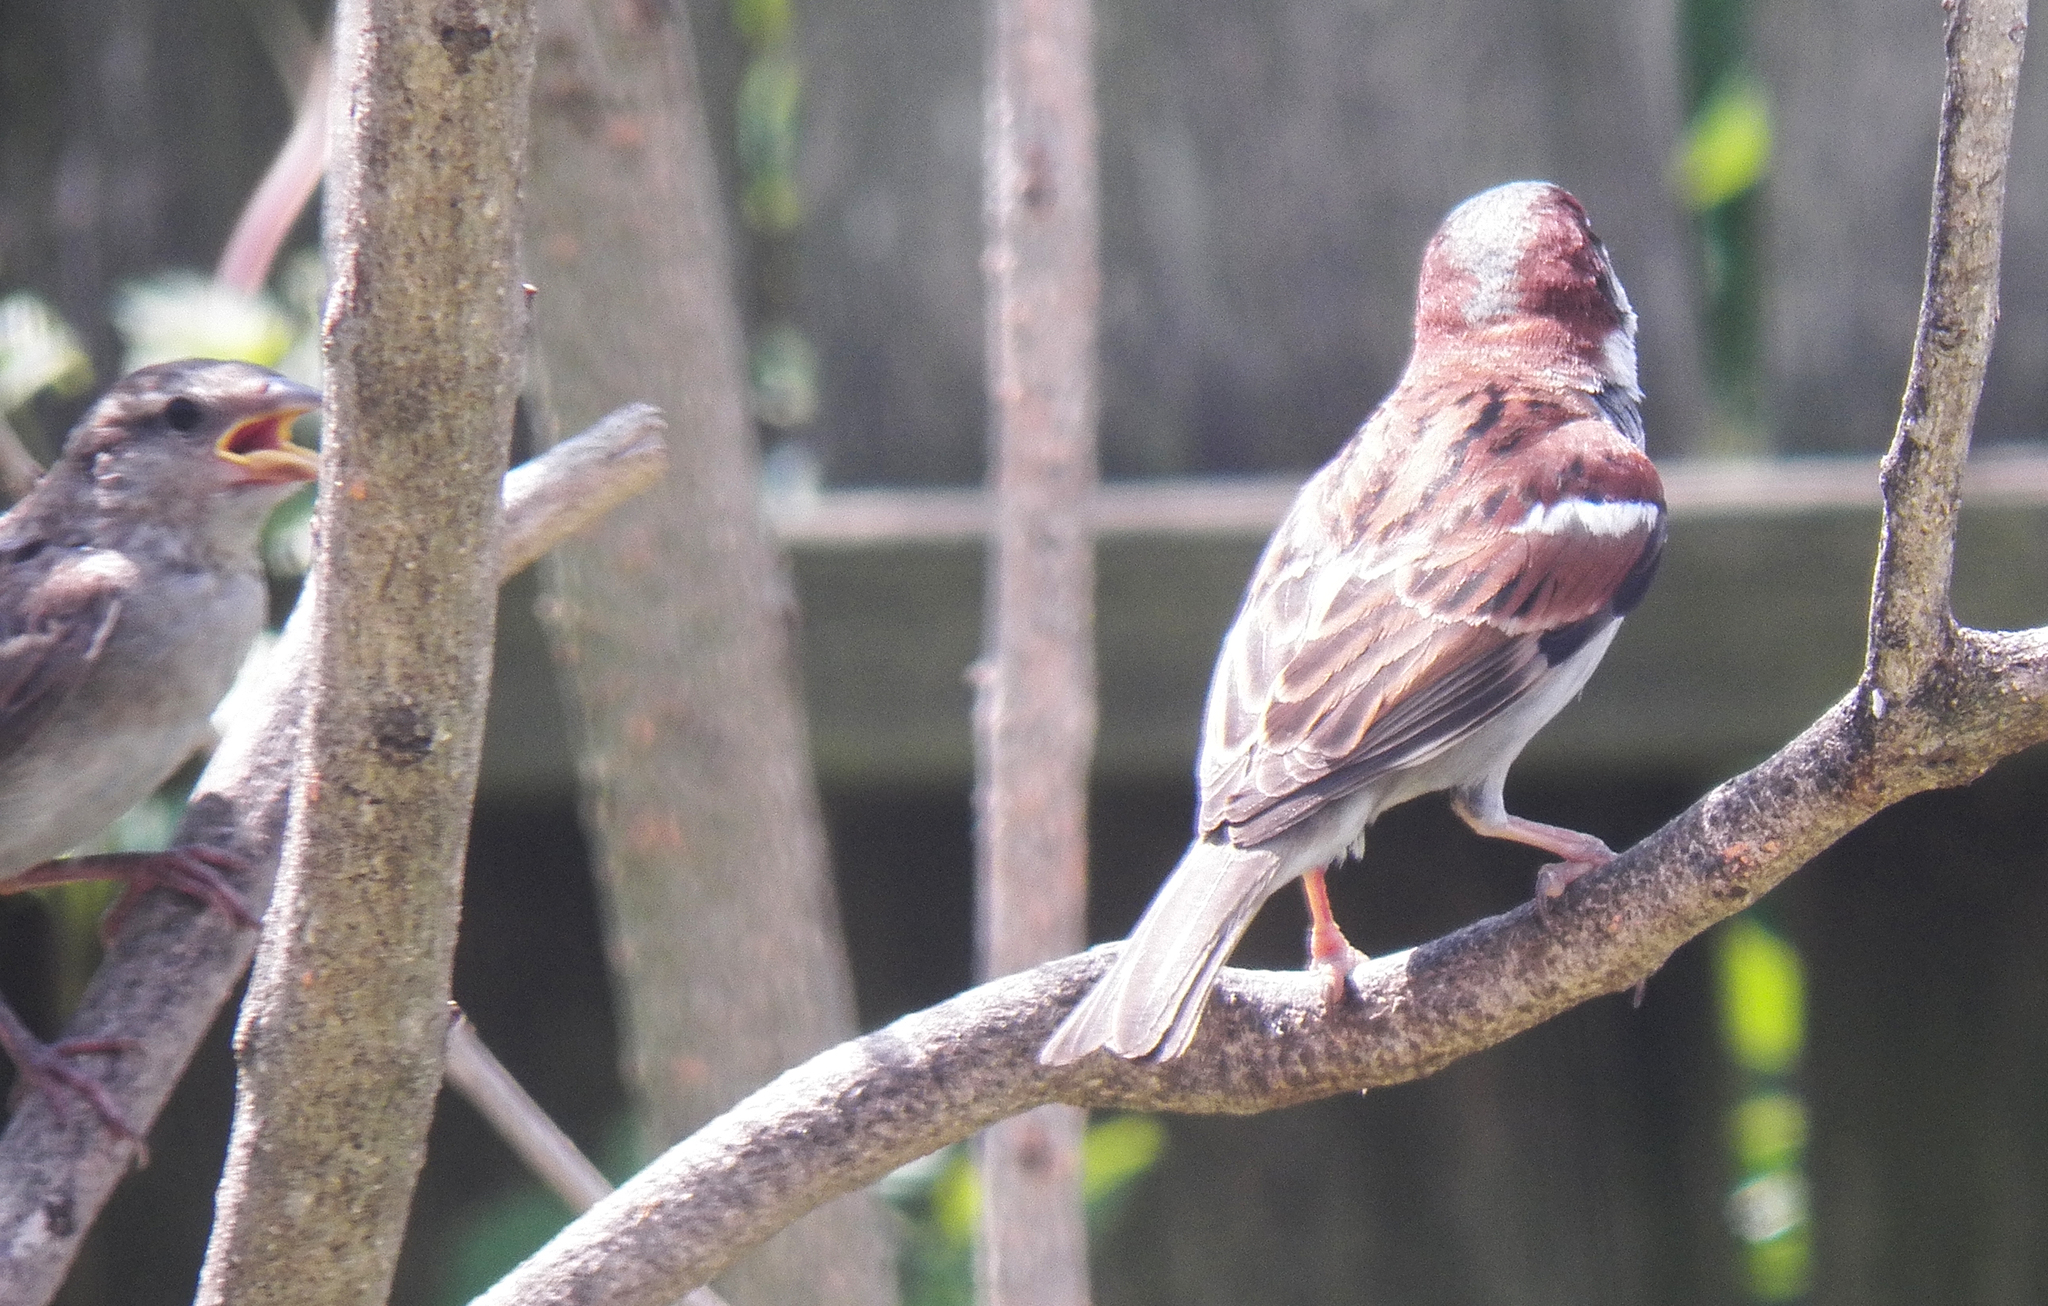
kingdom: Animalia
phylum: Chordata
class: Aves
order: Passeriformes
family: Passeridae
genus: Passer
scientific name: Passer domesticus
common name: House sparrow
